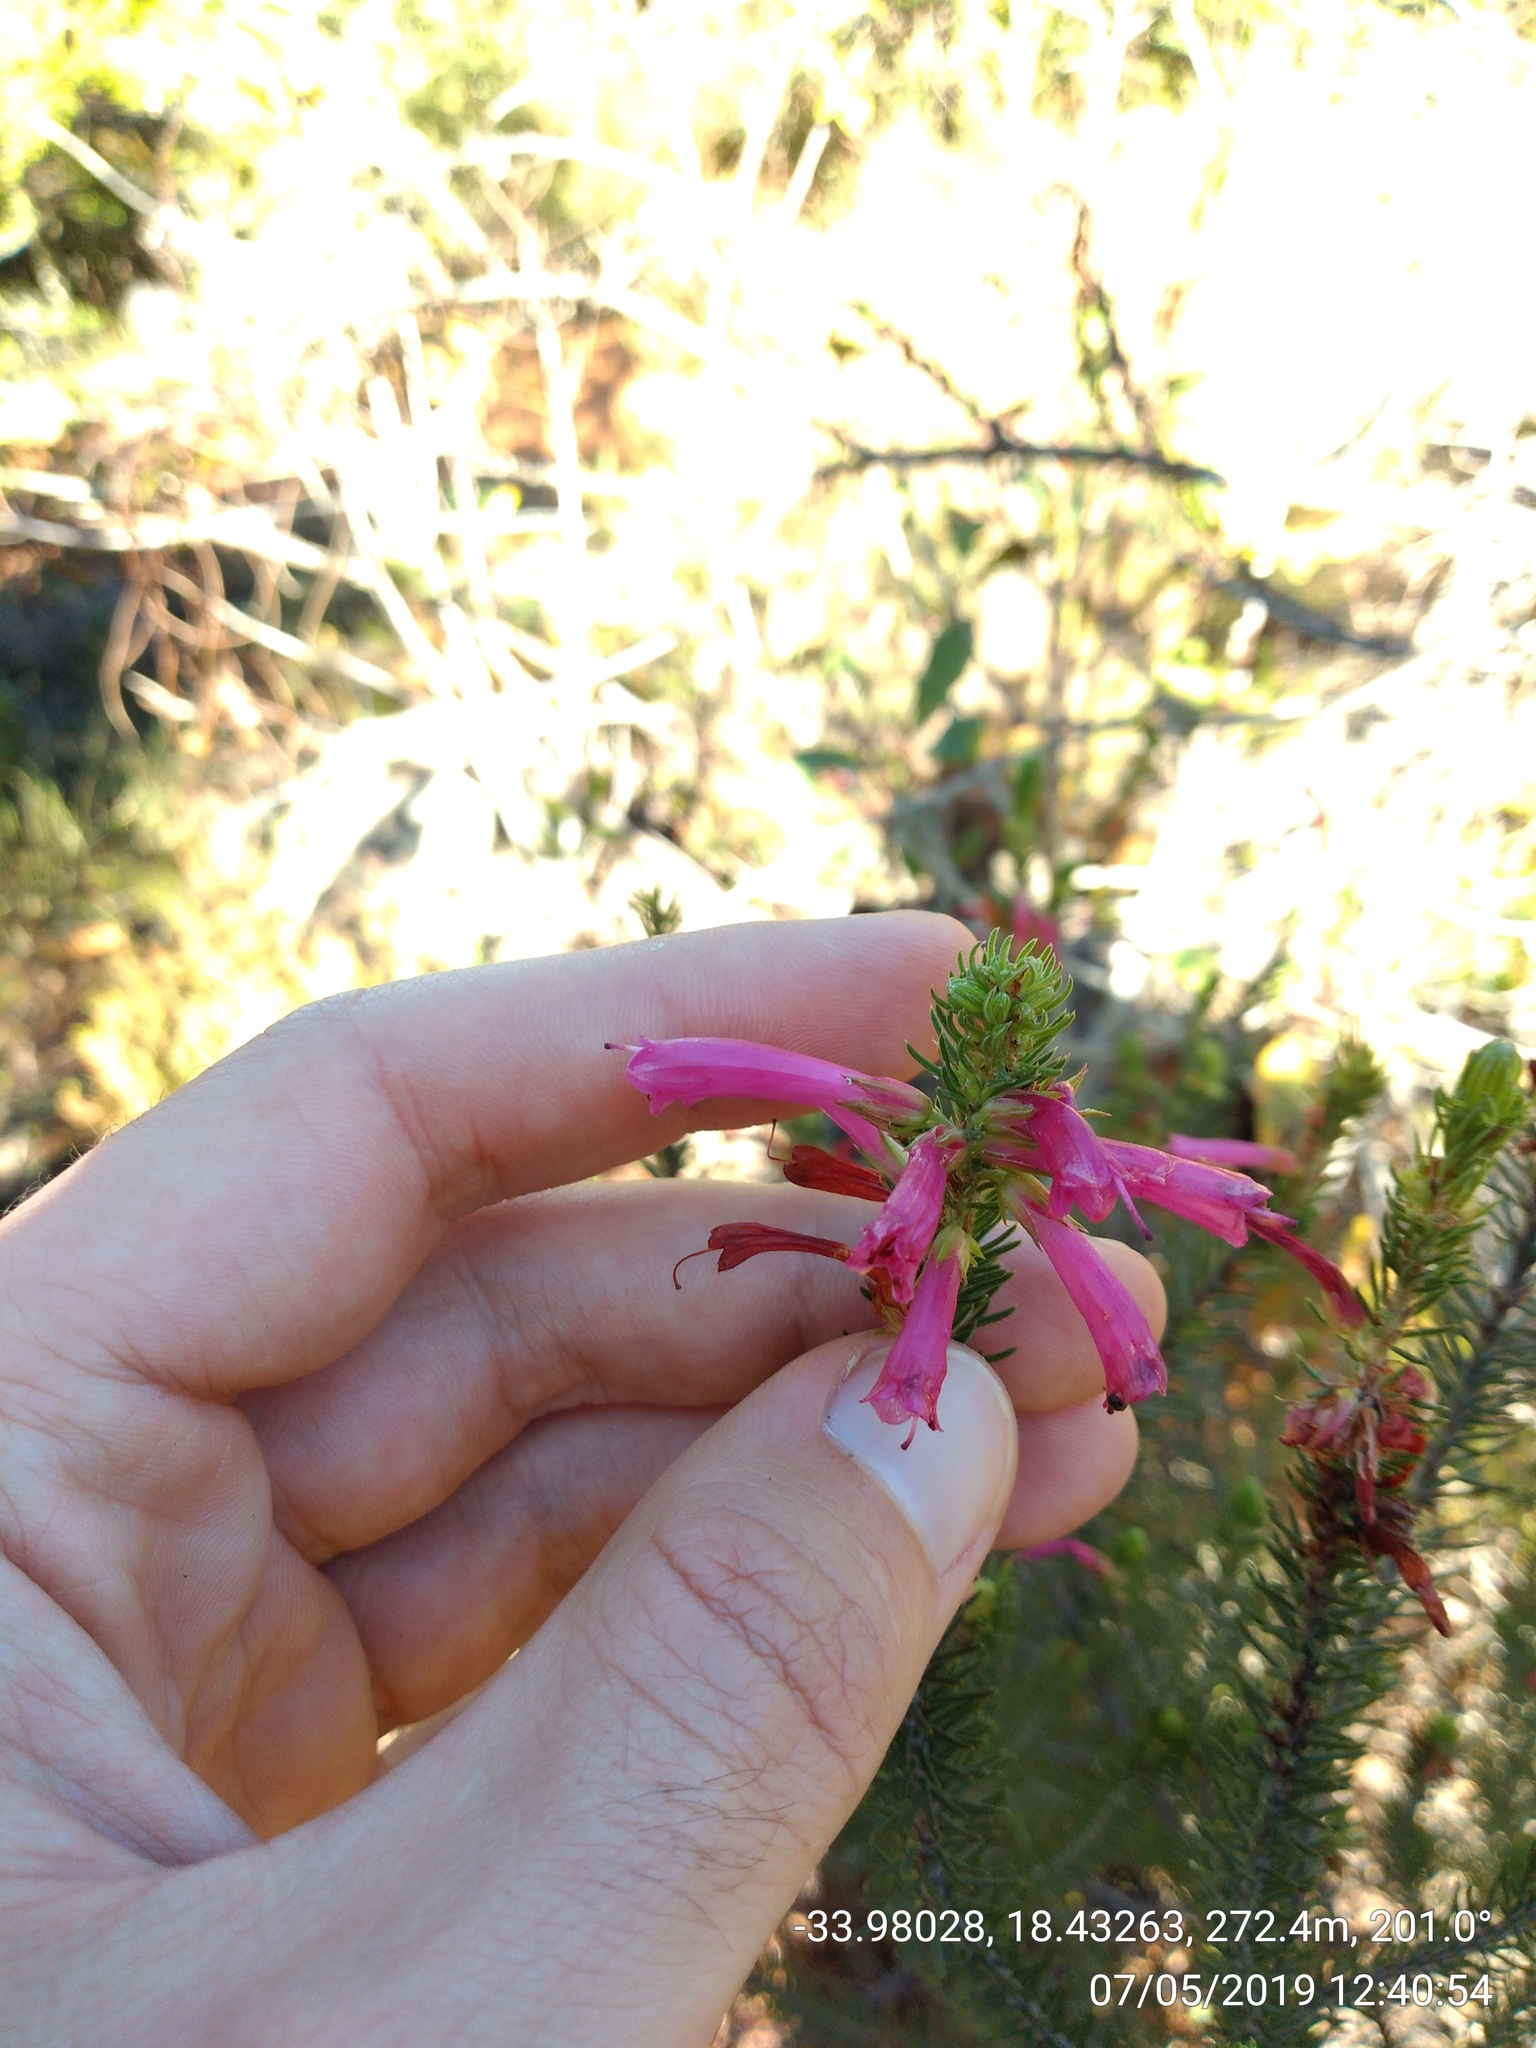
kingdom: Plantae
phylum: Tracheophyta
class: Magnoliopsida
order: Ericales
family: Ericaceae
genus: Erica
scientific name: Erica abietina
